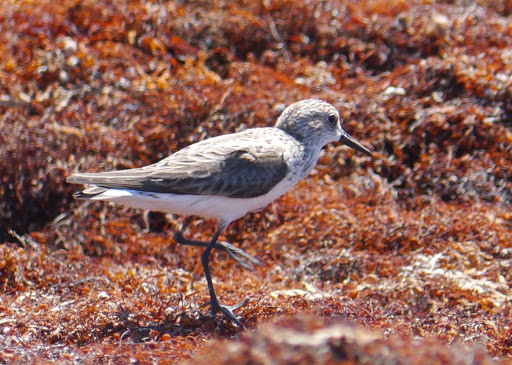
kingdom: Animalia
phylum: Chordata
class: Aves
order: Charadriiformes
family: Scolopacidae
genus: Calidris
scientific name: Calidris pusilla
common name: Semipalmated sandpiper
